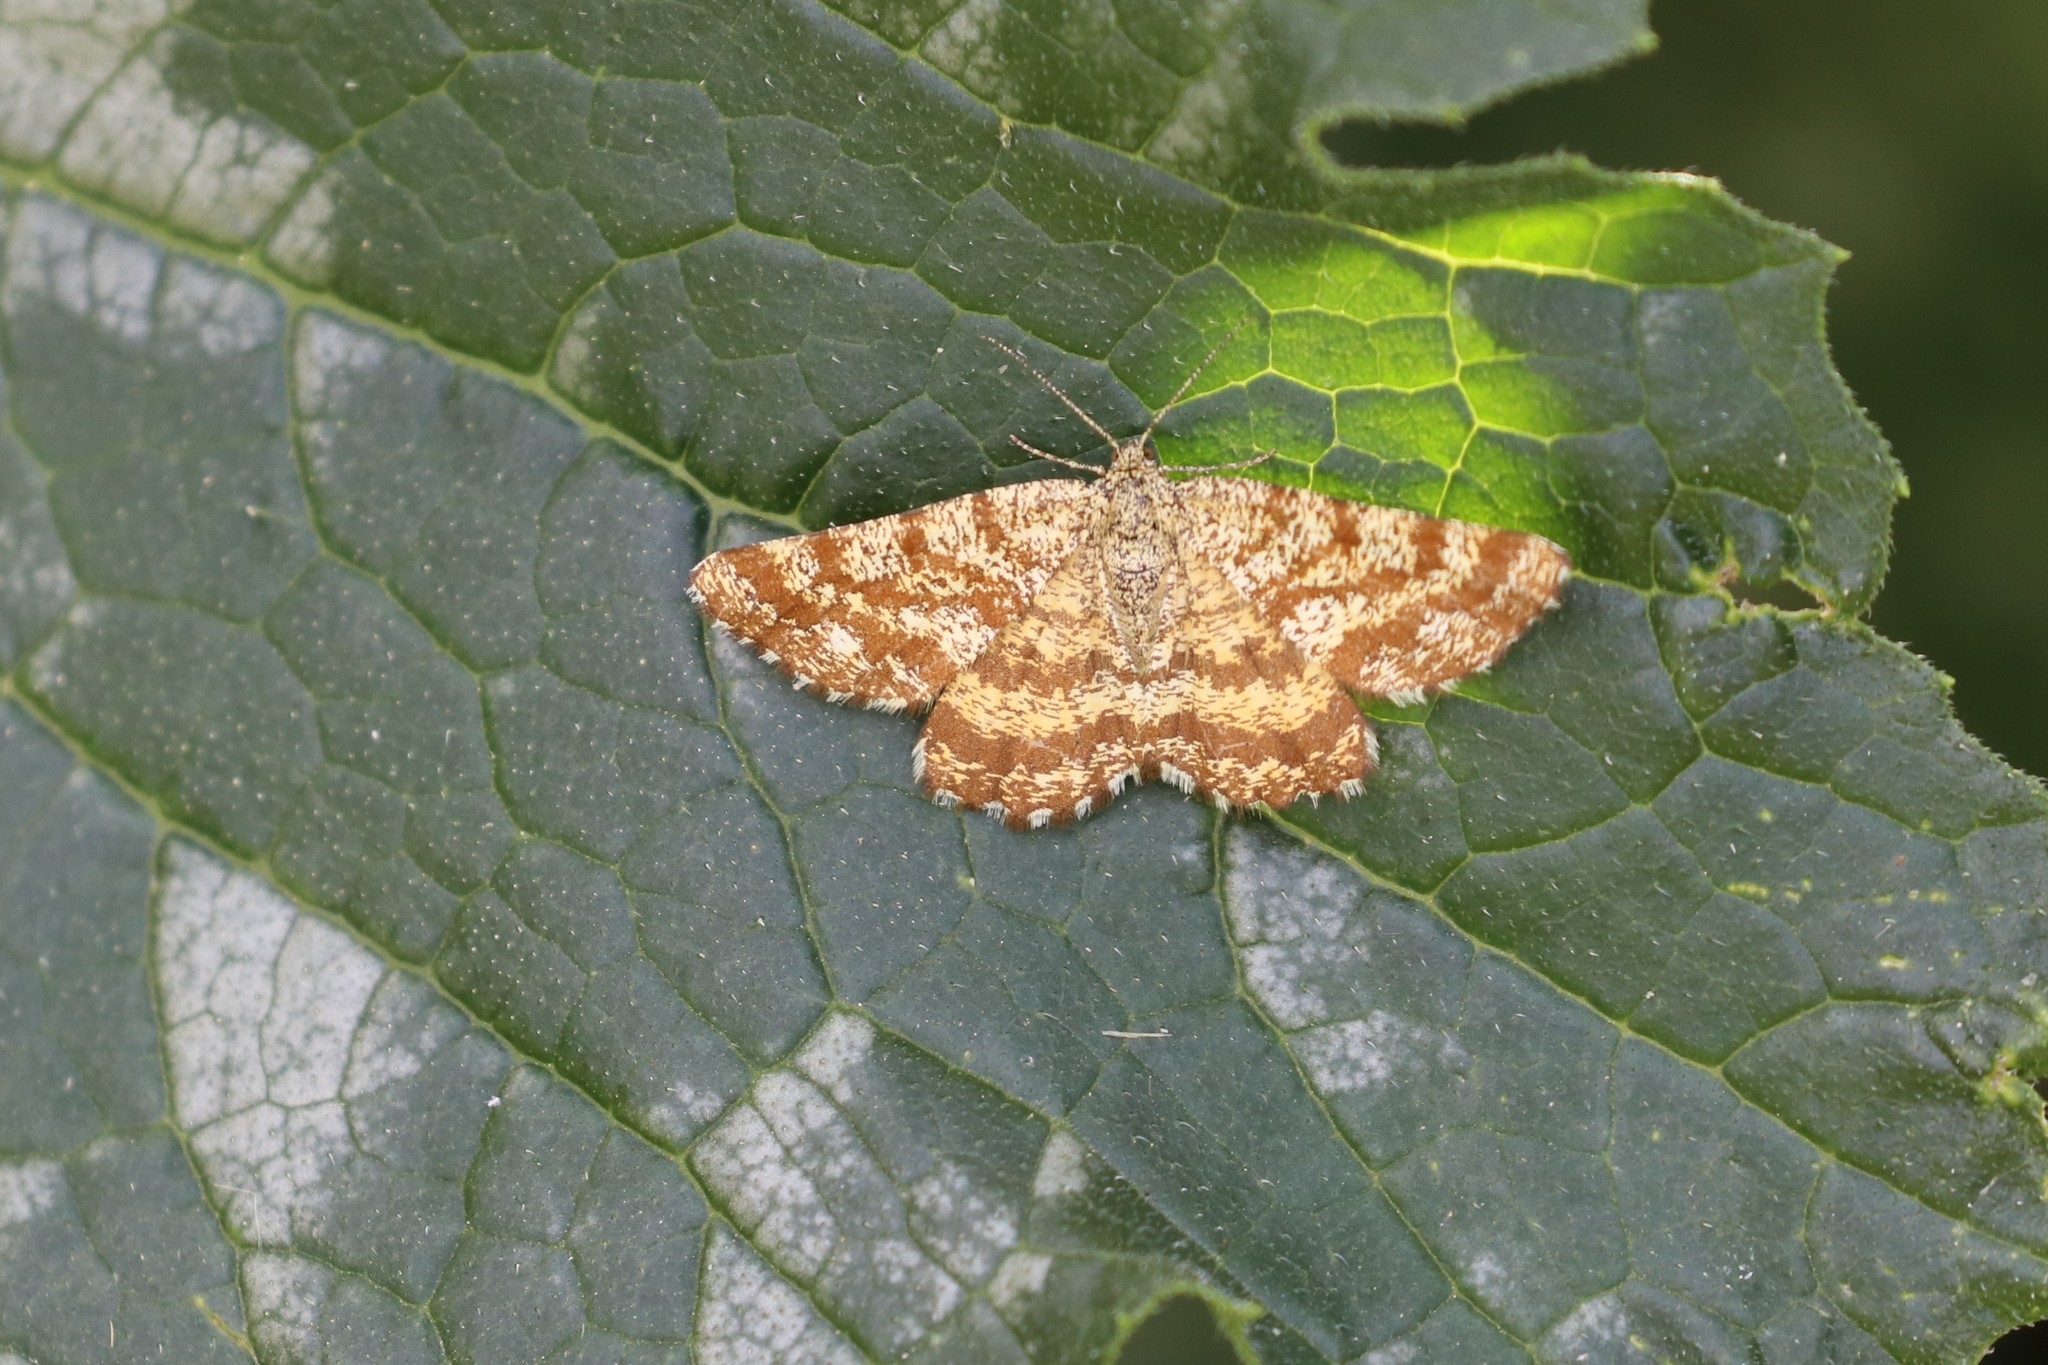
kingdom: Animalia
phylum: Arthropoda
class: Insecta
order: Lepidoptera
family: Geometridae
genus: Ematurga
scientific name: Ematurga atomaria
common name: Common heath
